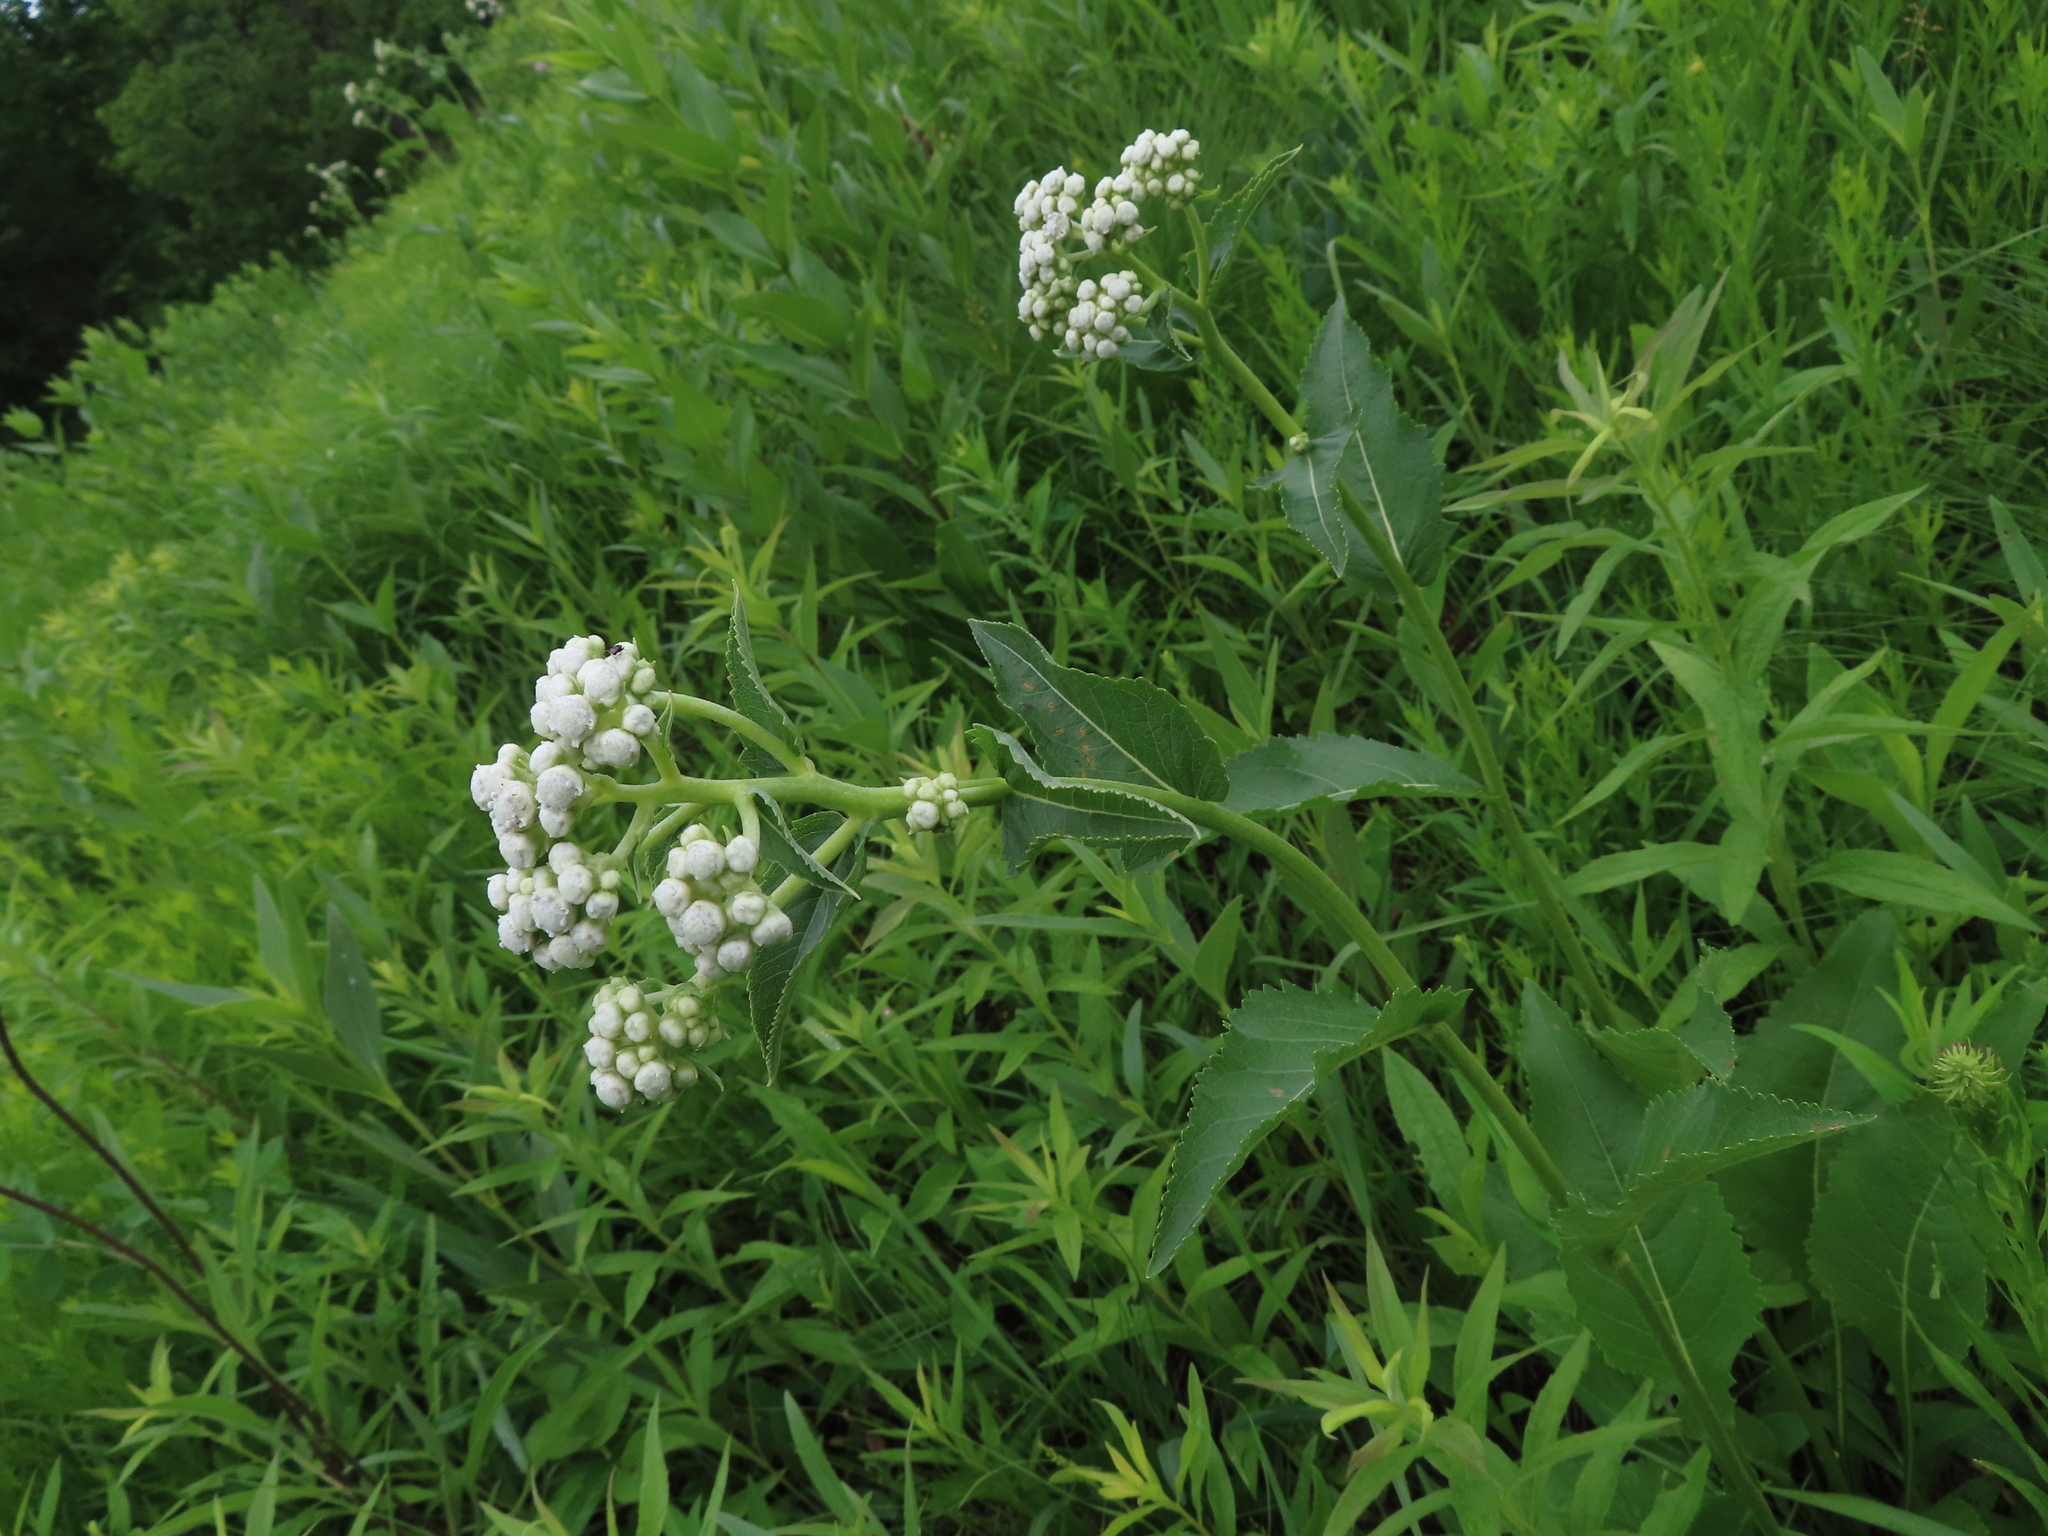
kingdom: Plantae
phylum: Tracheophyta
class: Magnoliopsida
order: Asterales
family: Asteraceae
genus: Parthenium
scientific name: Parthenium integrifolium
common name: American feverfew
